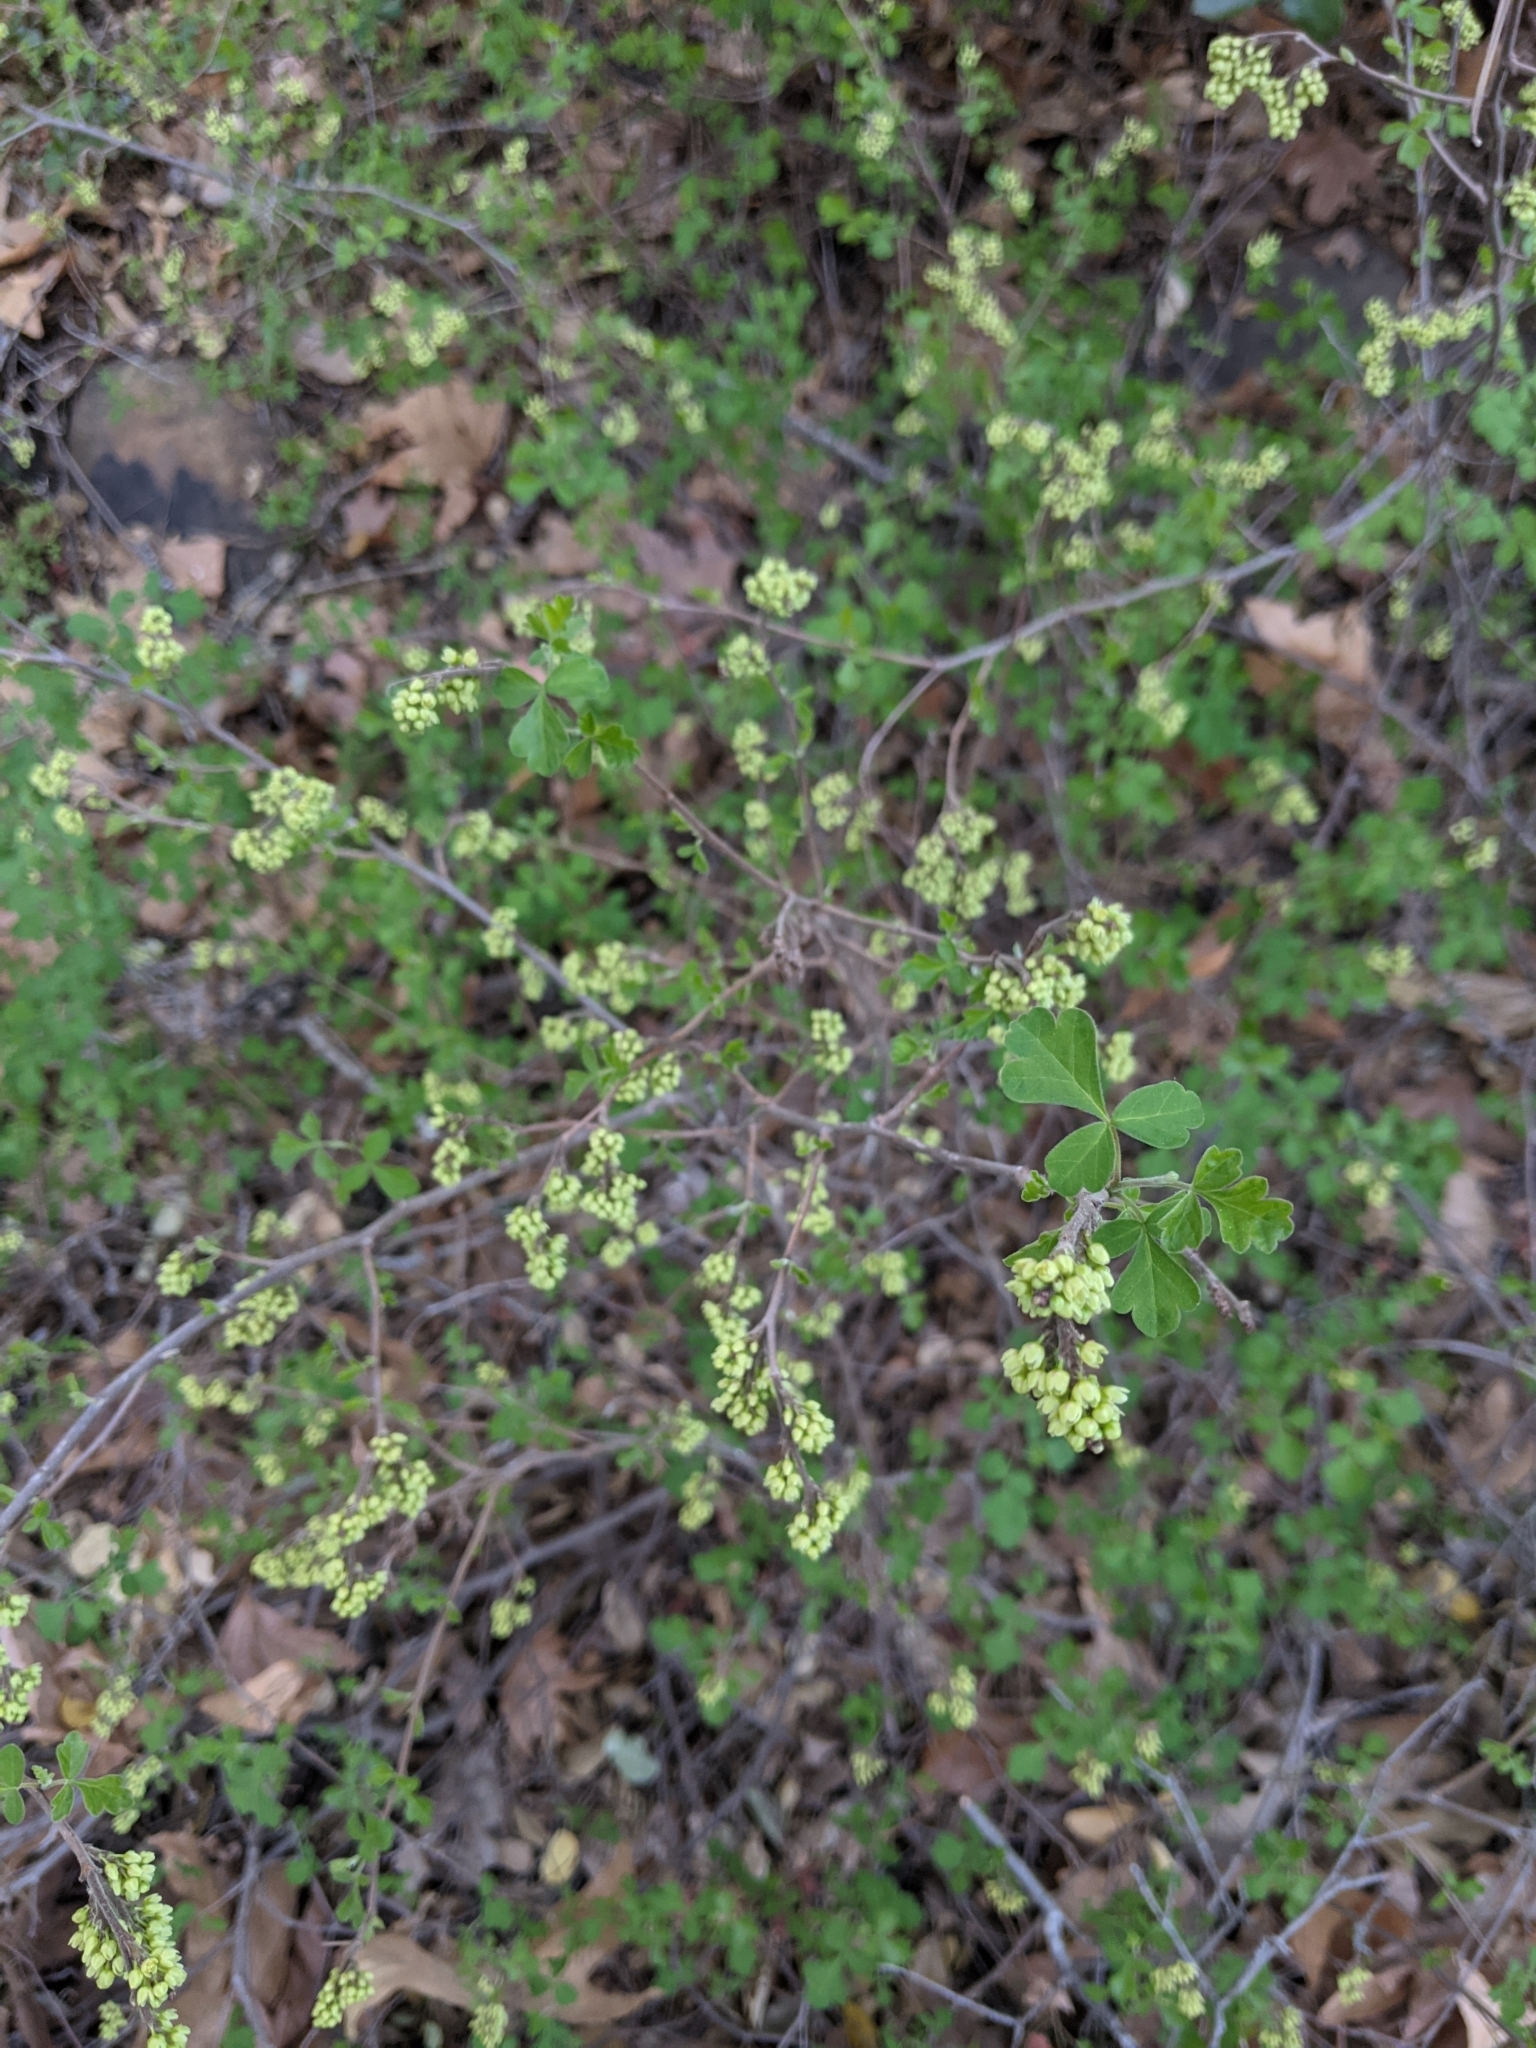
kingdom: Plantae
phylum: Tracheophyta
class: Magnoliopsida
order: Sapindales
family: Anacardiaceae
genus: Rhus
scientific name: Rhus aromatica
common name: Aromatic sumac
